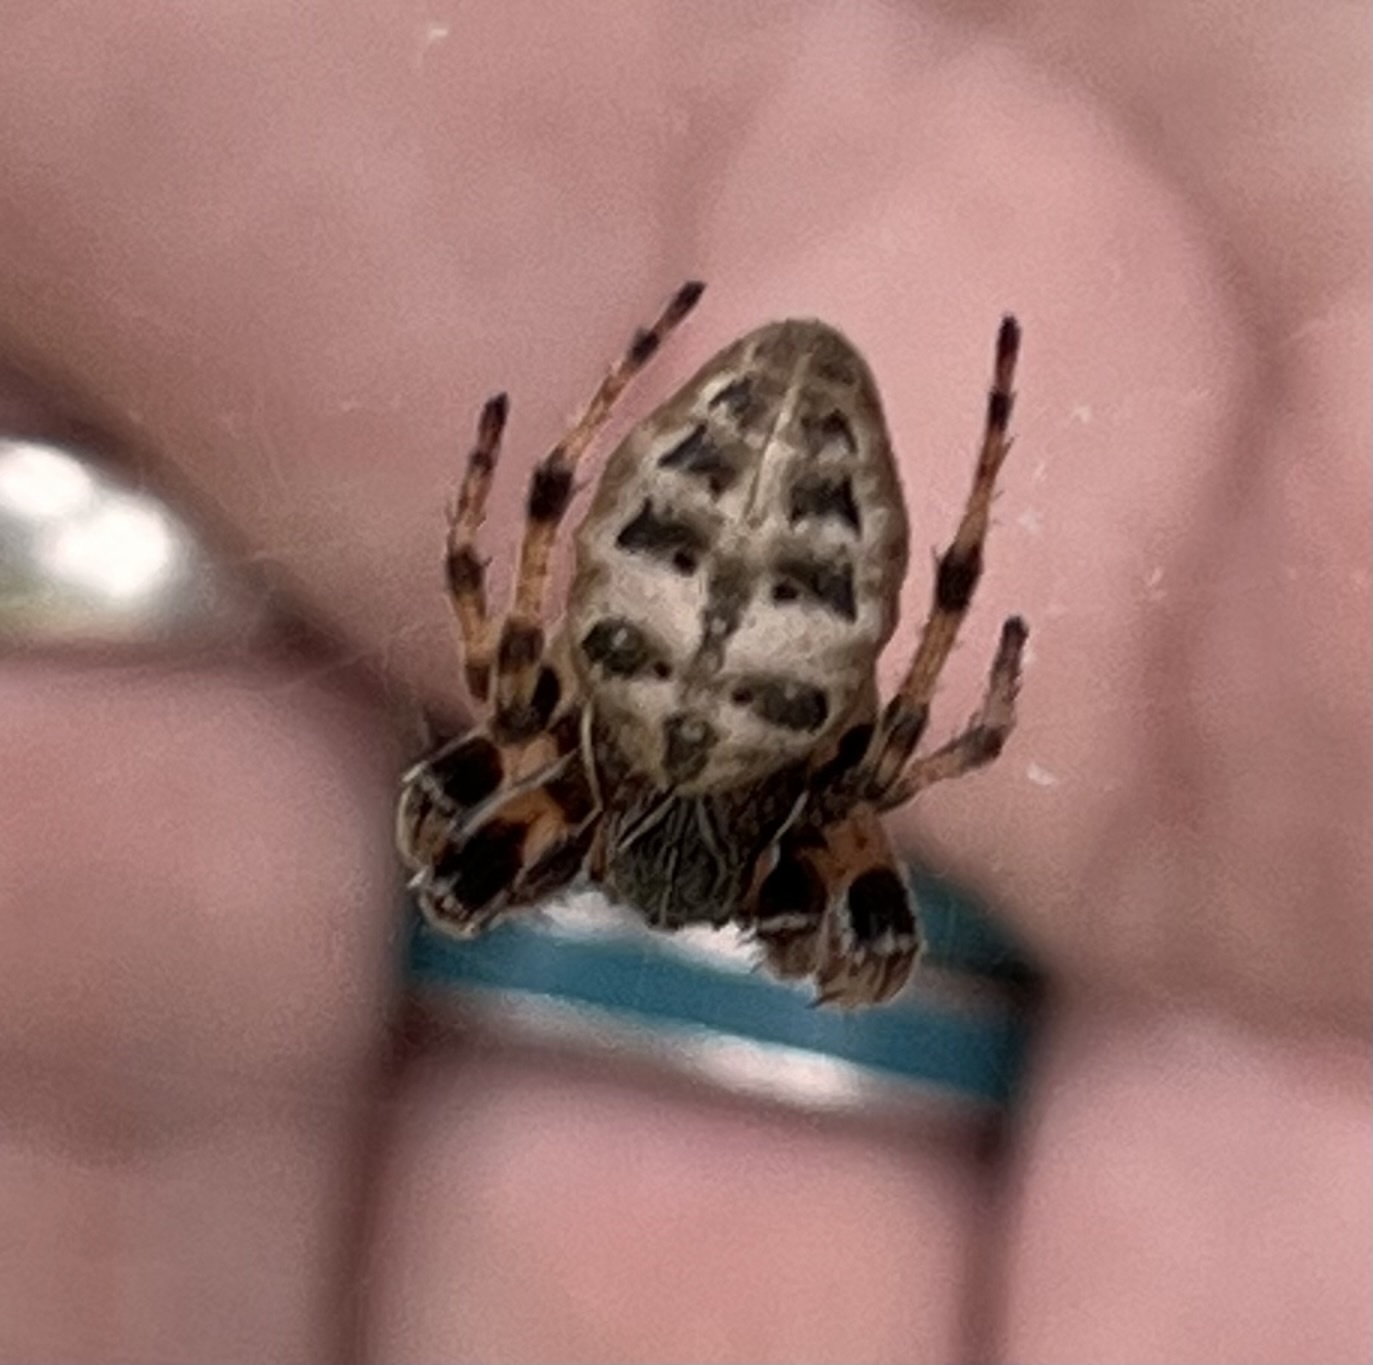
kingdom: Animalia
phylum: Arthropoda
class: Arachnida
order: Araneae
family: Araneidae
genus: Larinioides
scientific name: Larinioides cornutus
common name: Furrow orbweaver
